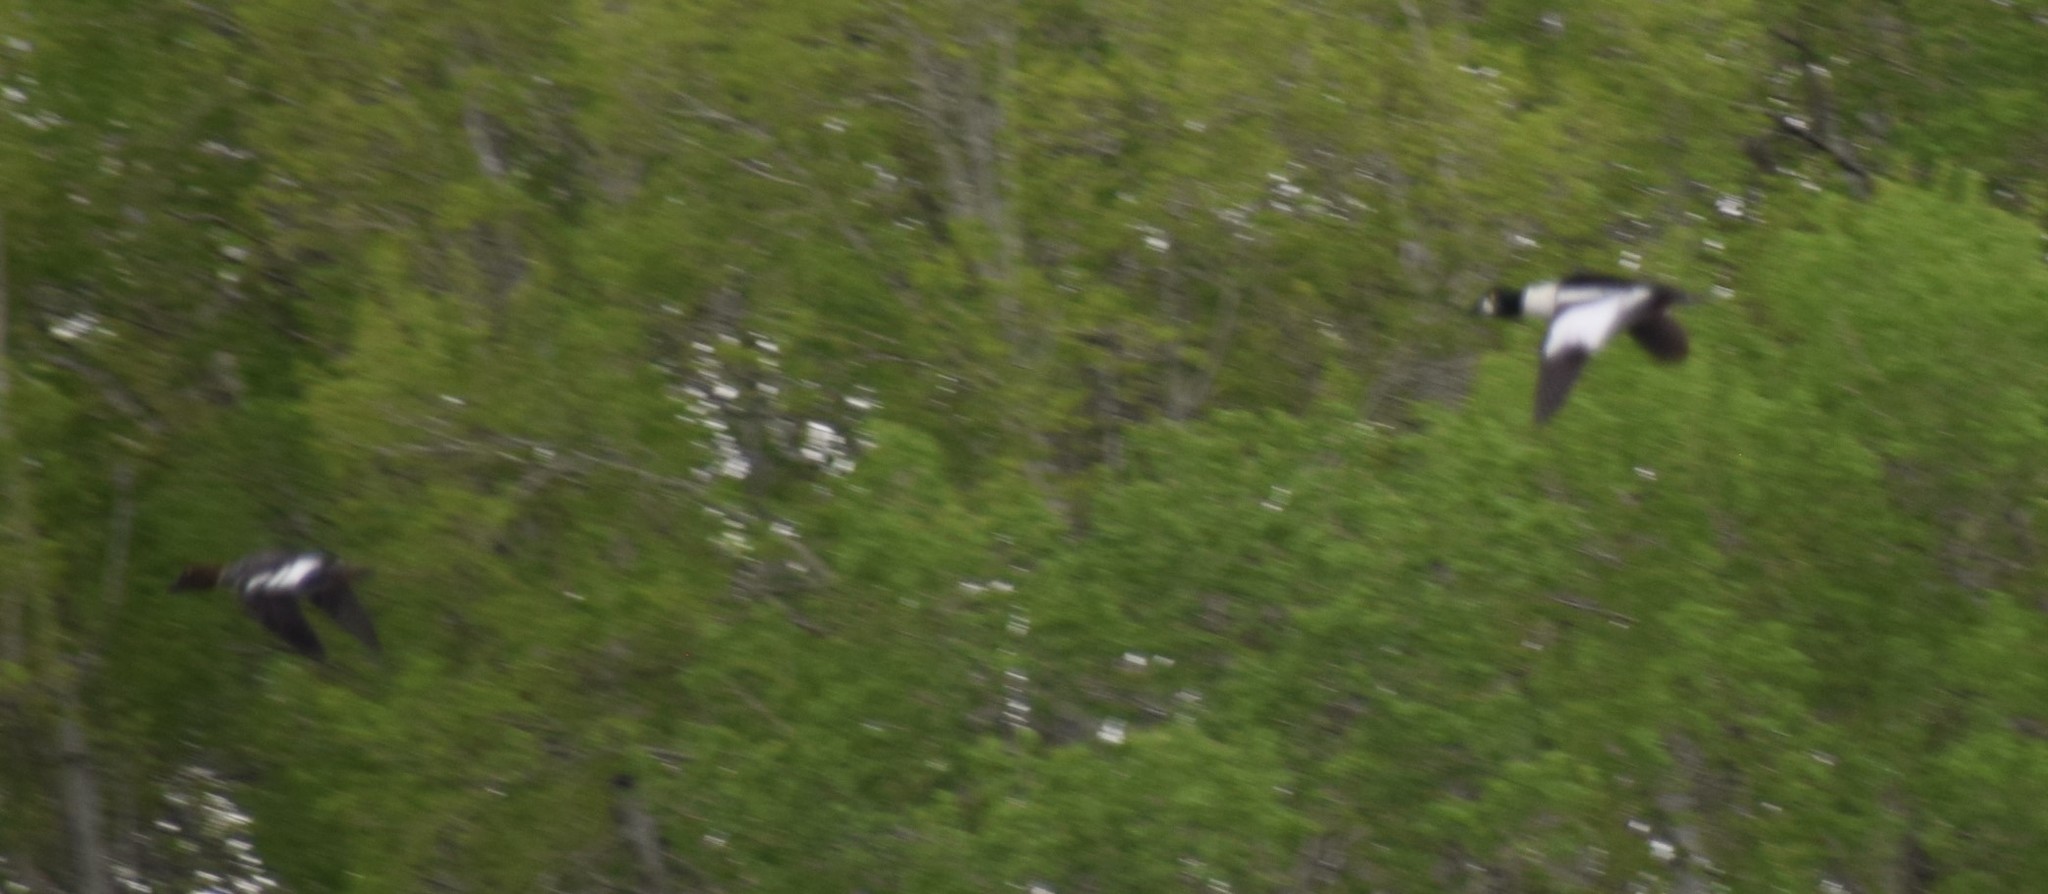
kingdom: Animalia
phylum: Chordata
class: Aves
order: Anseriformes
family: Anatidae
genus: Bucephala
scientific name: Bucephala clangula
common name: Common goldeneye
